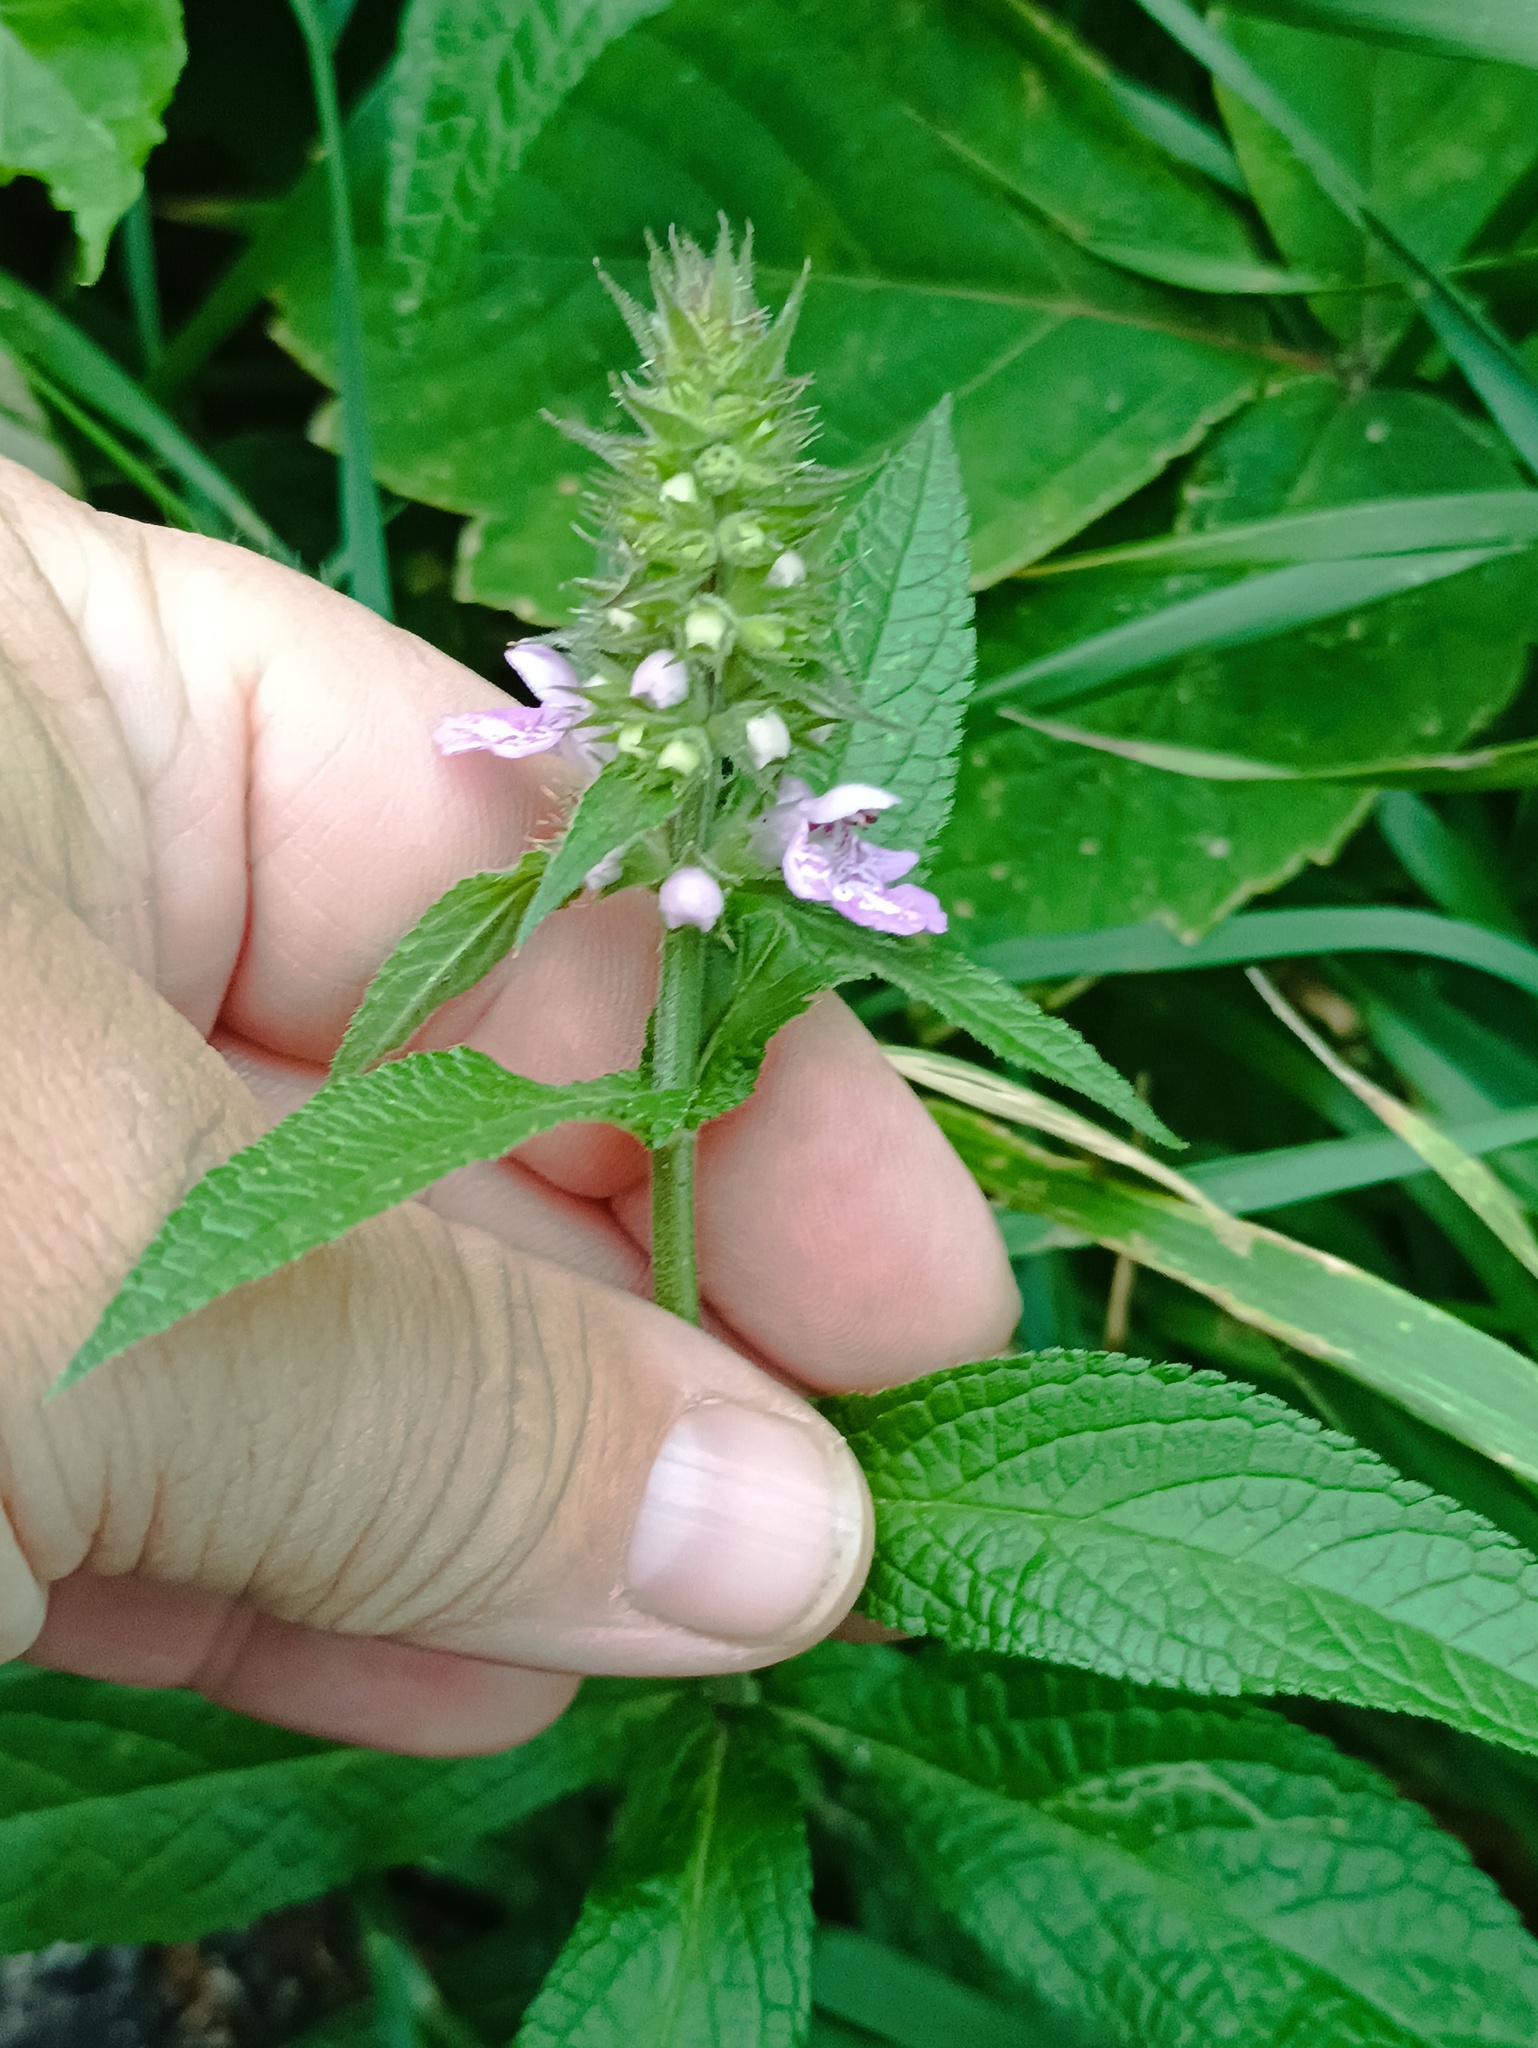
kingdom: Plantae
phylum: Tracheophyta
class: Magnoliopsida
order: Lamiales
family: Lamiaceae
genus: Stachys
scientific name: Stachys palustris
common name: Marsh woundwort
